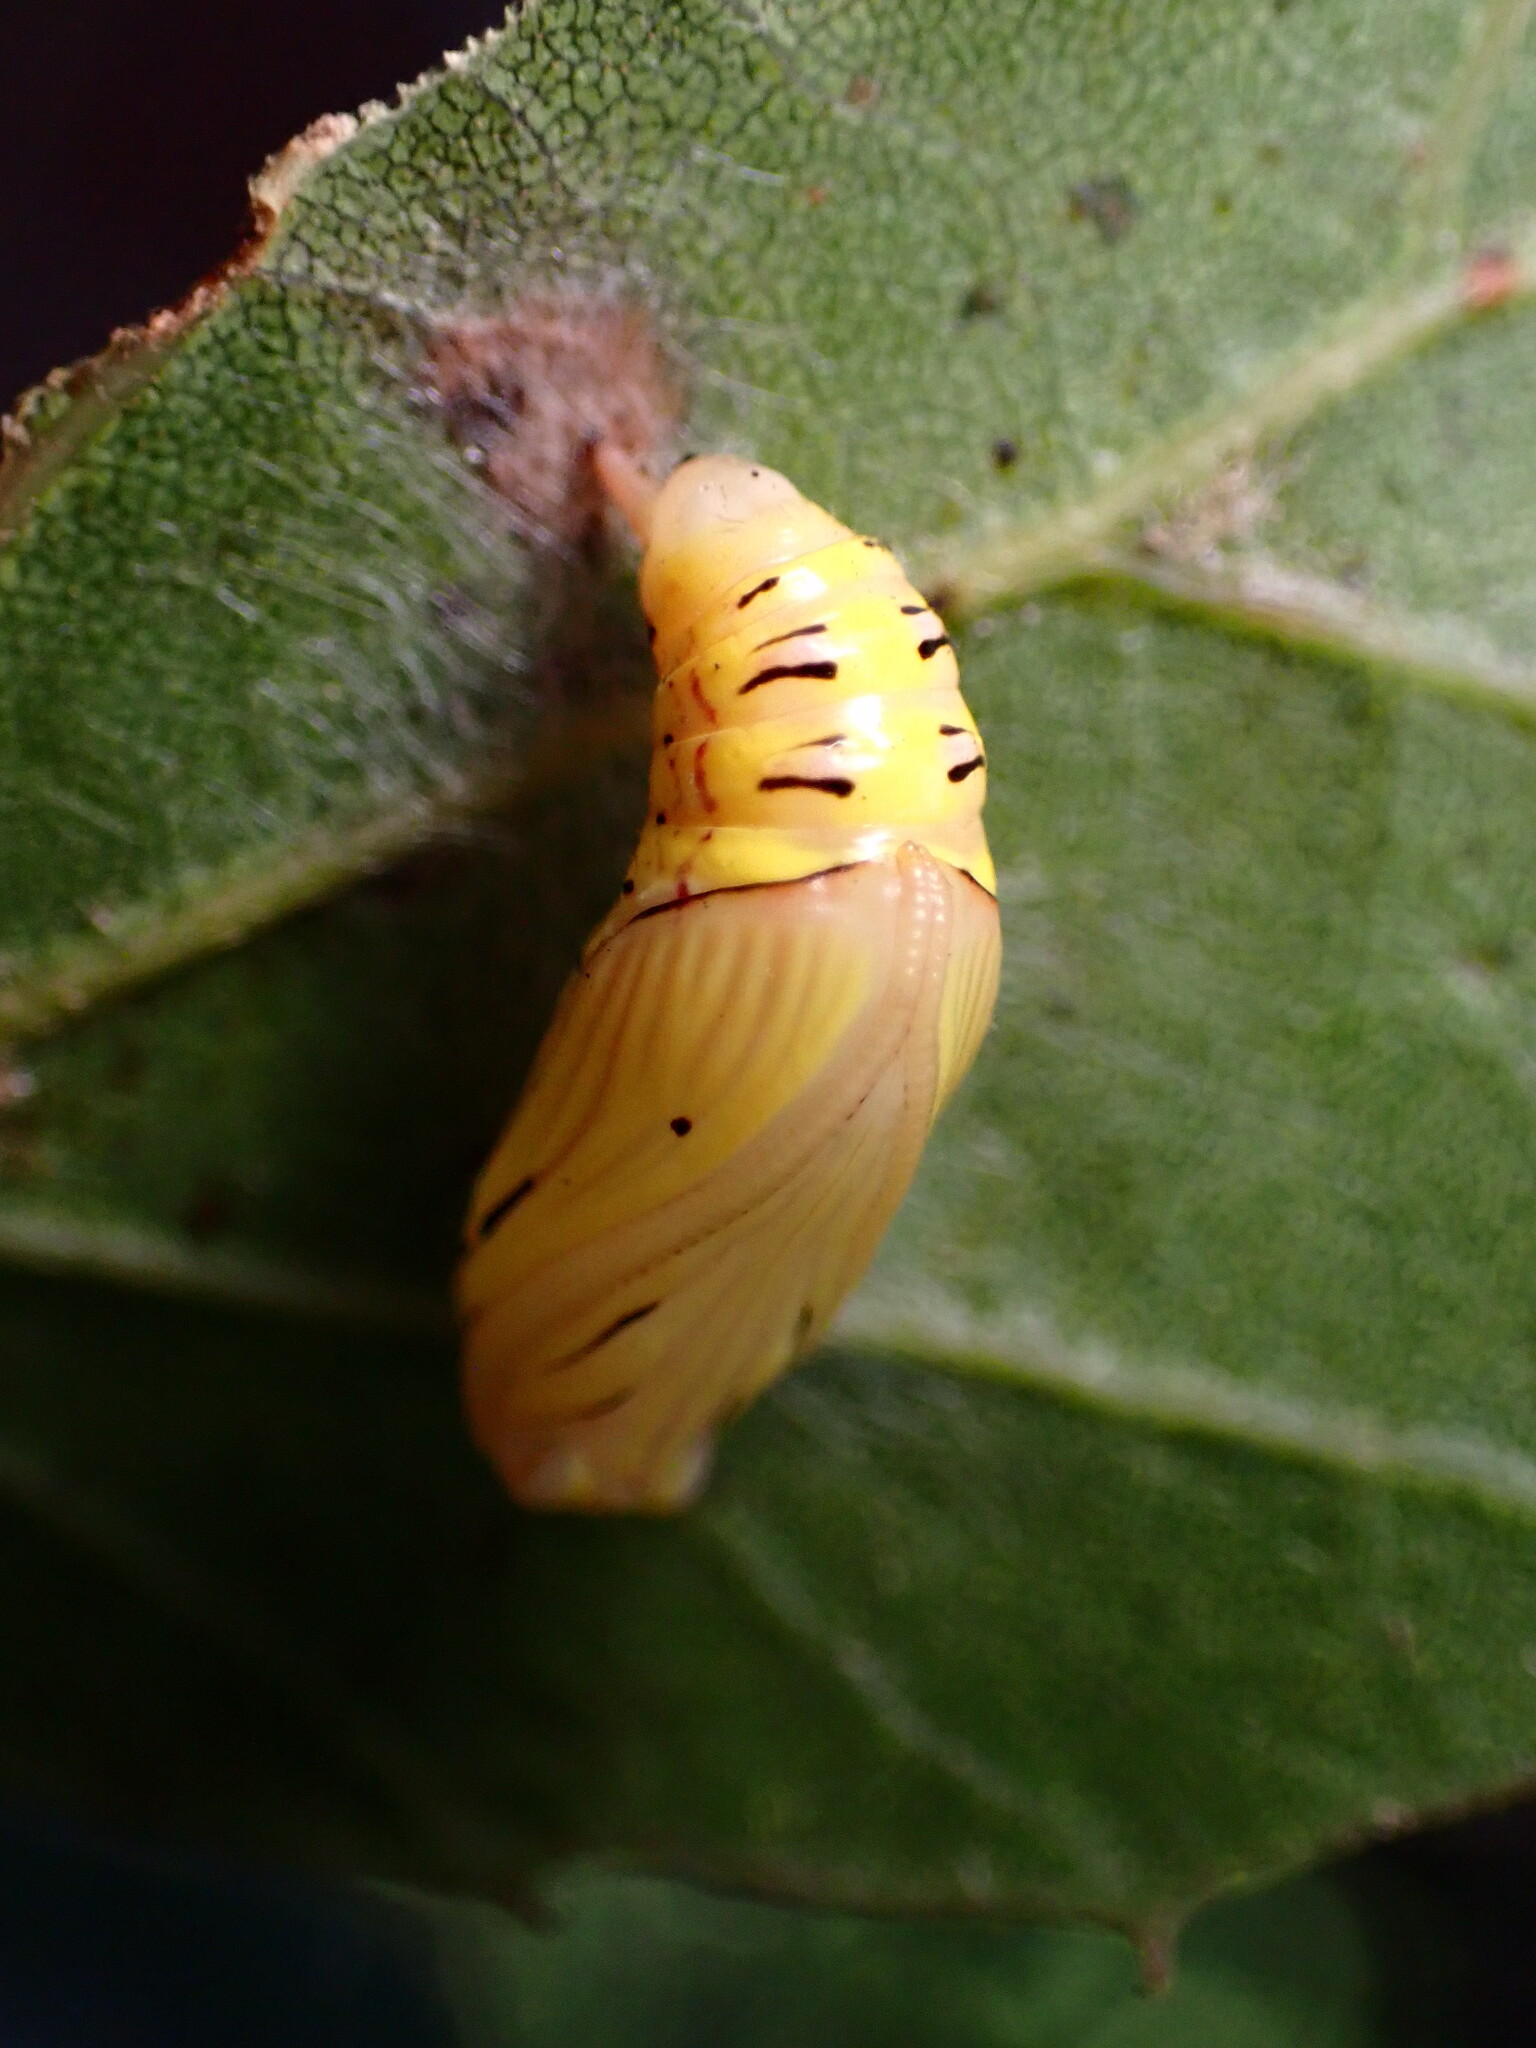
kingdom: Animalia
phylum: Arthropoda
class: Insecta
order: Lepidoptera
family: Notodontidae
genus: Phryganidia
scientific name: Phryganidia californica
